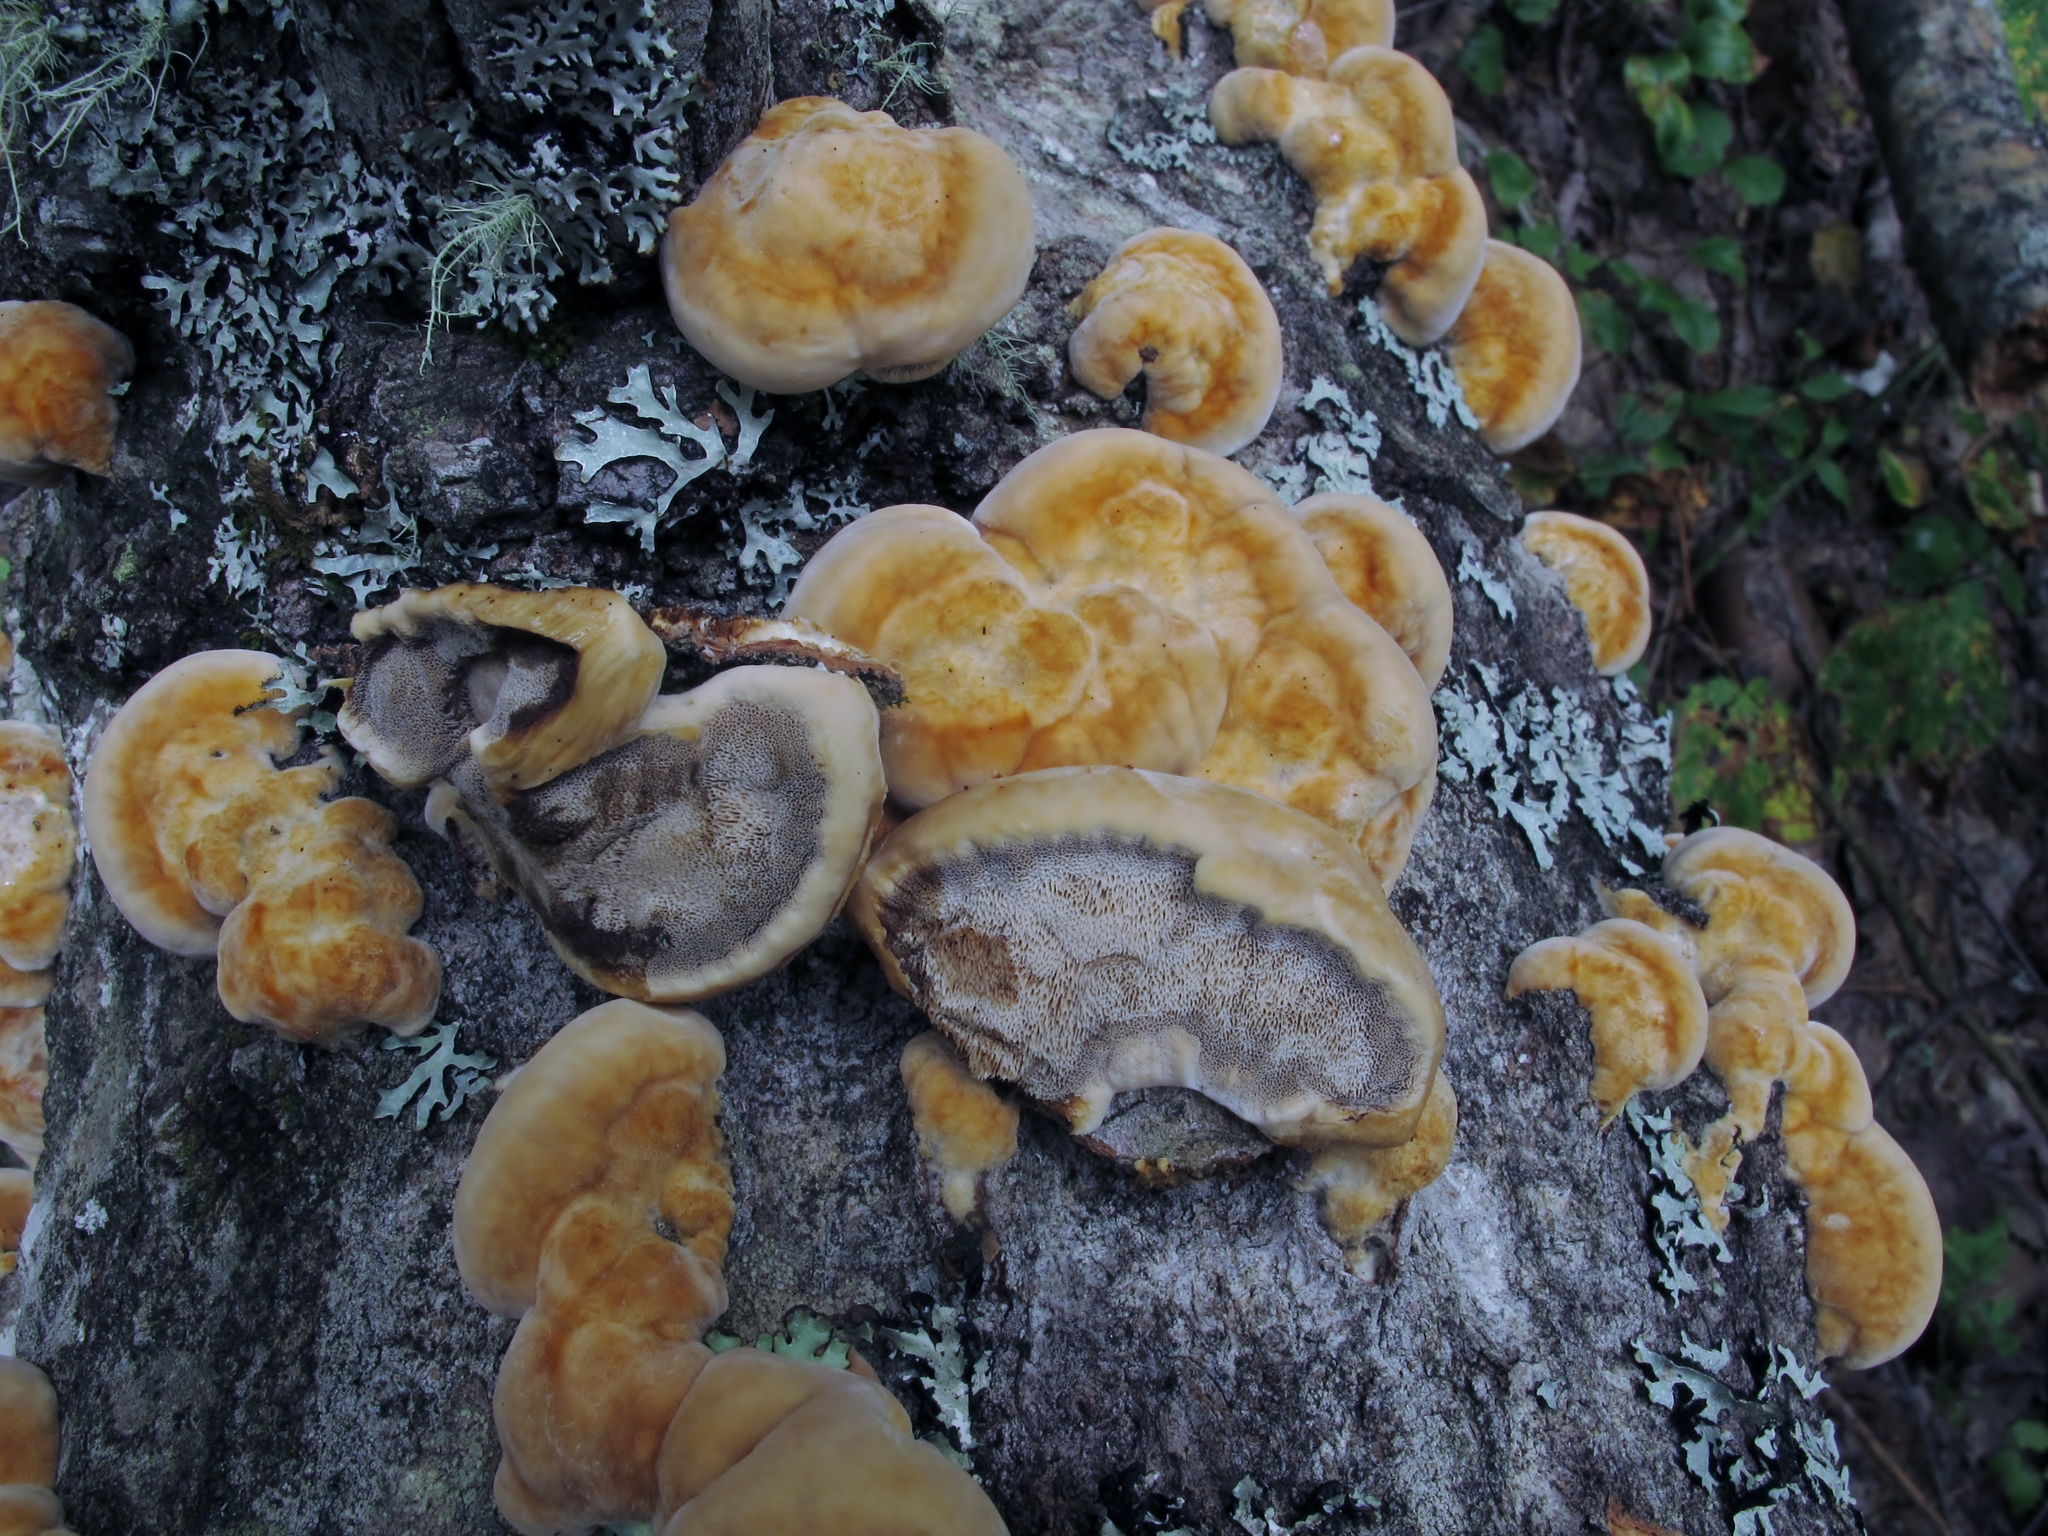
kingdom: Fungi
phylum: Basidiomycota
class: Agaricomycetes
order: Hymenochaetales
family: Hymenochaetaceae
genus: Xanthoporia
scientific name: Xanthoporia radiata
